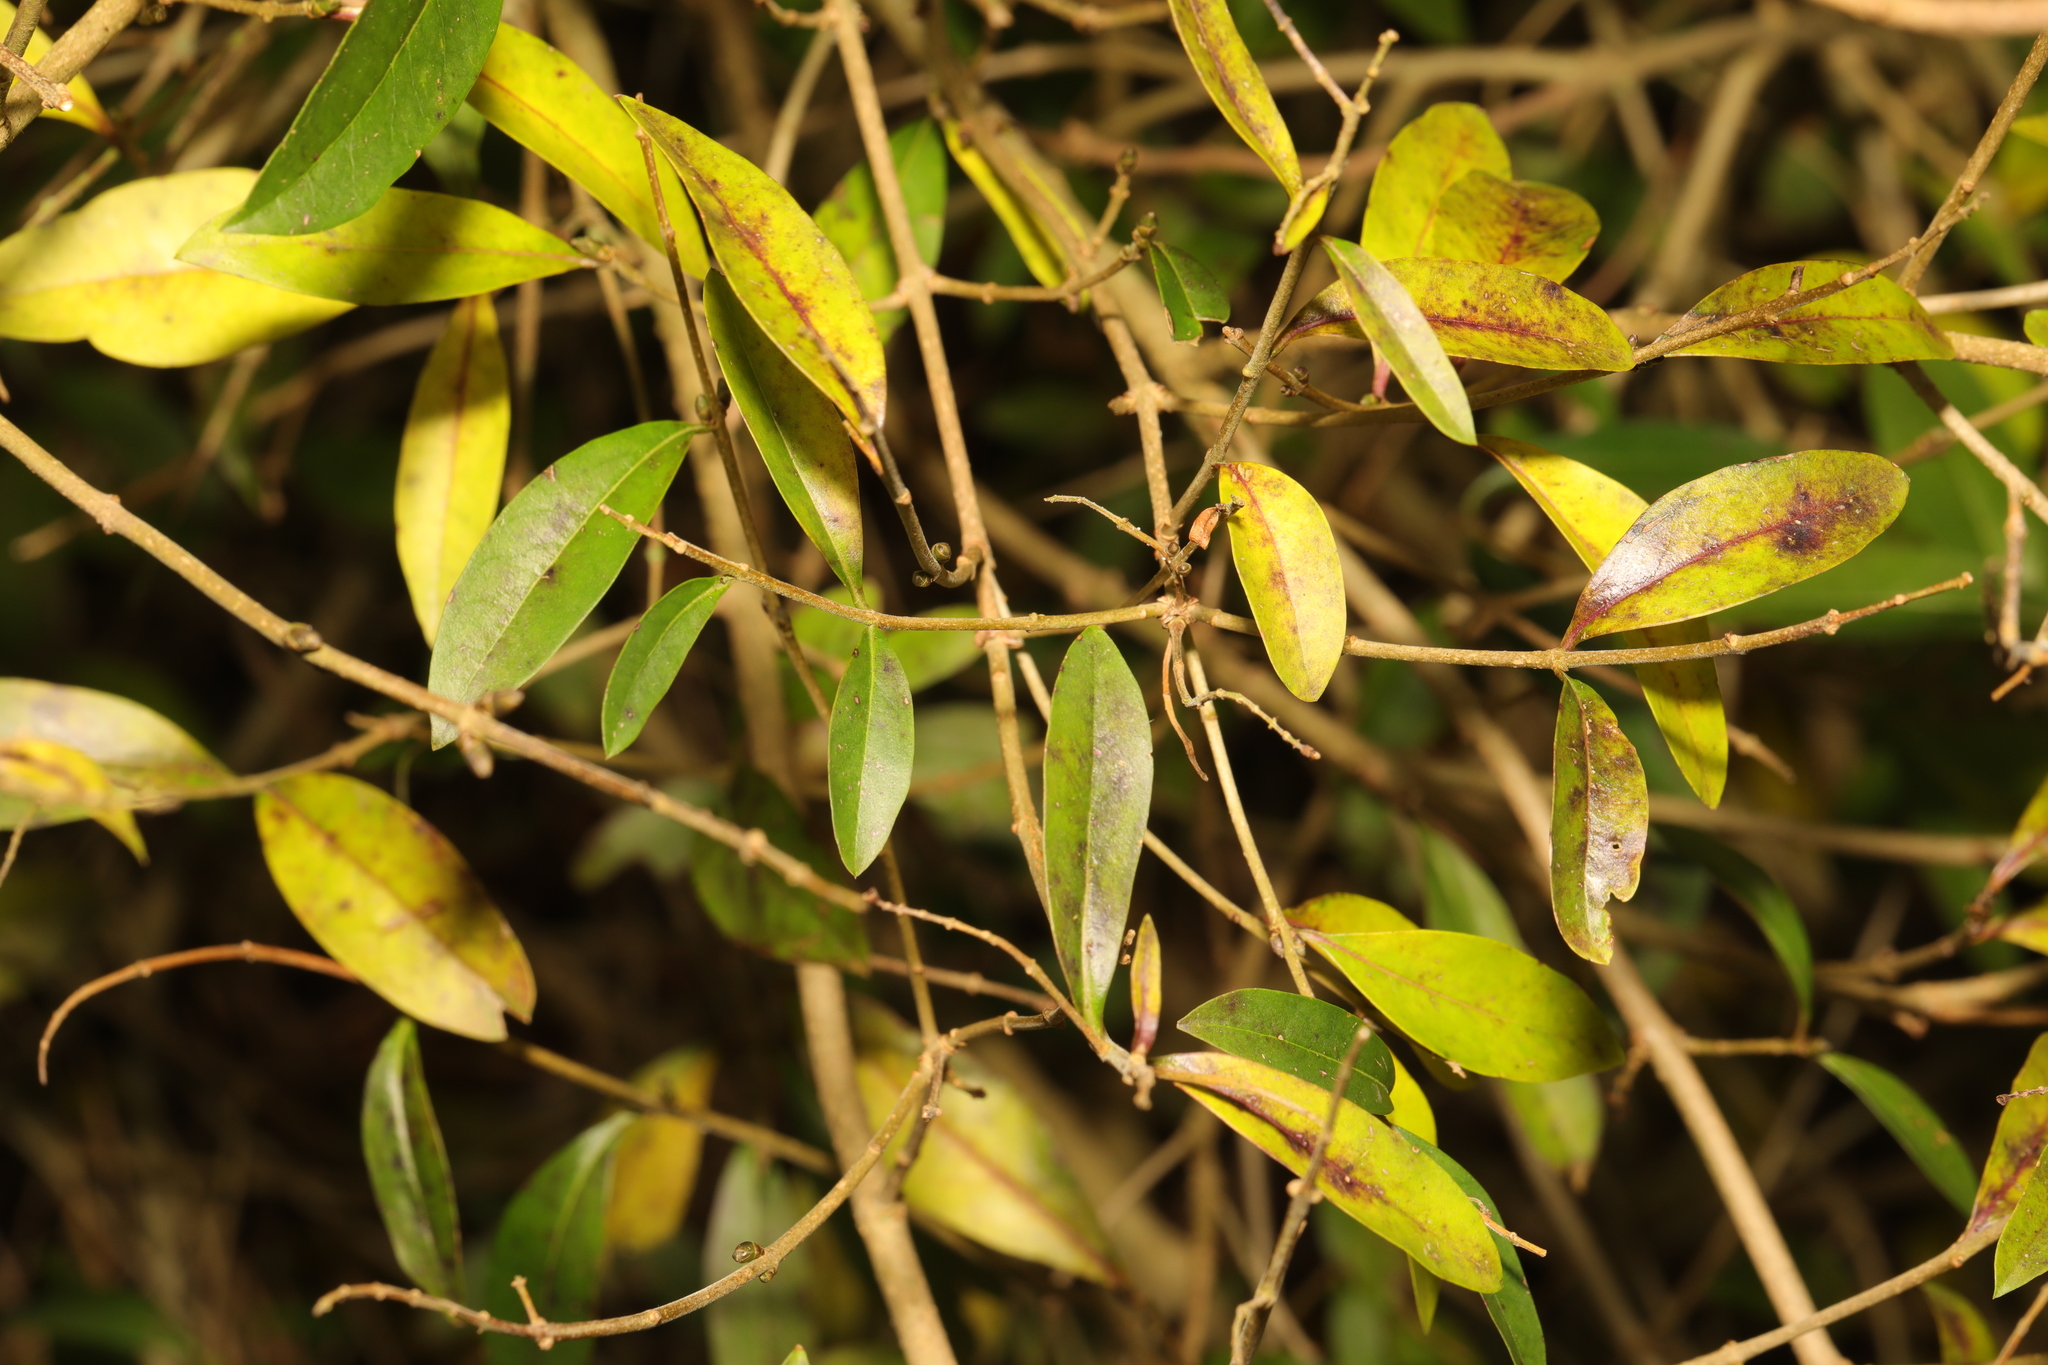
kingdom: Plantae
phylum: Tracheophyta
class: Magnoliopsida
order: Lamiales
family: Oleaceae
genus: Ligustrum
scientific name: Ligustrum vulgare
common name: Wild privet
